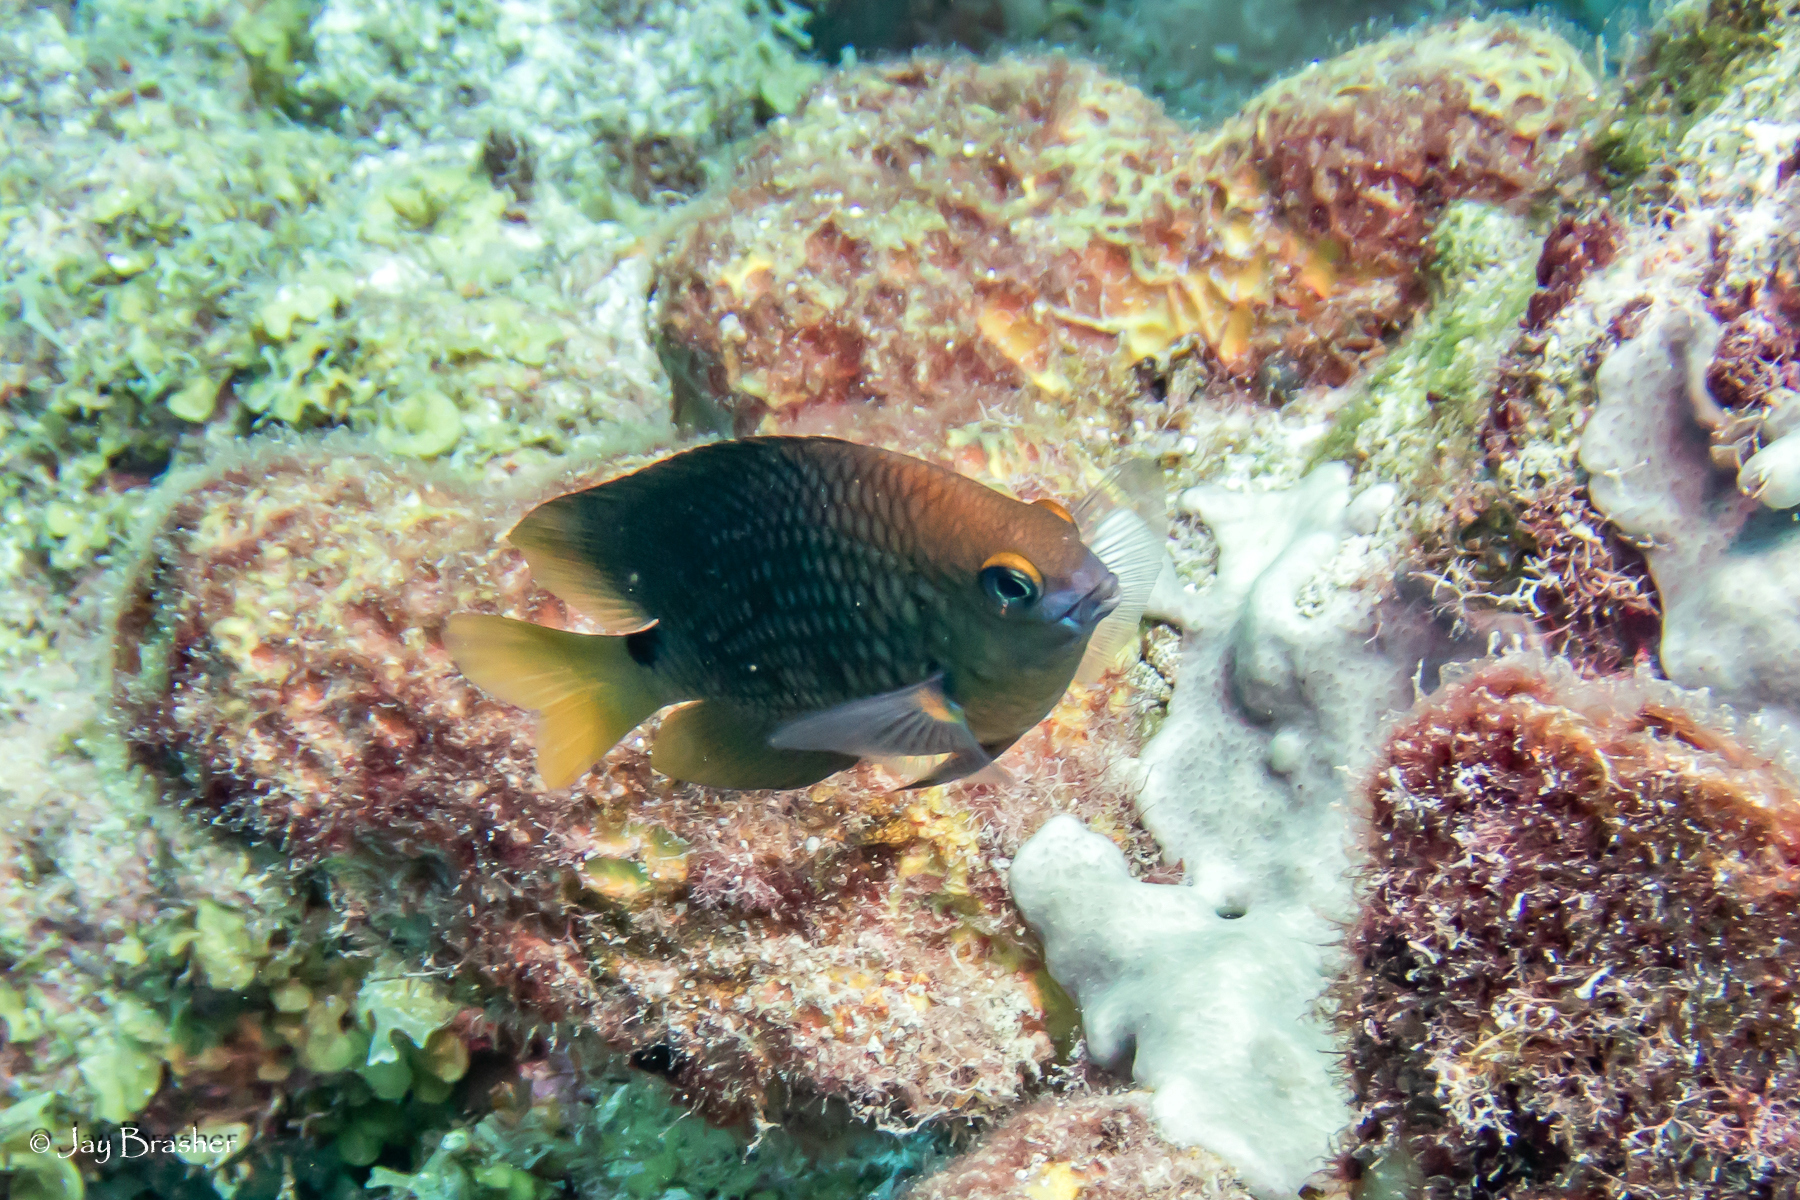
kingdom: Animalia
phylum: Chordata
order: Perciformes
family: Pomacentridae
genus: Stegastes
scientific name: Stegastes planifrons
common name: Threespot damselfish
